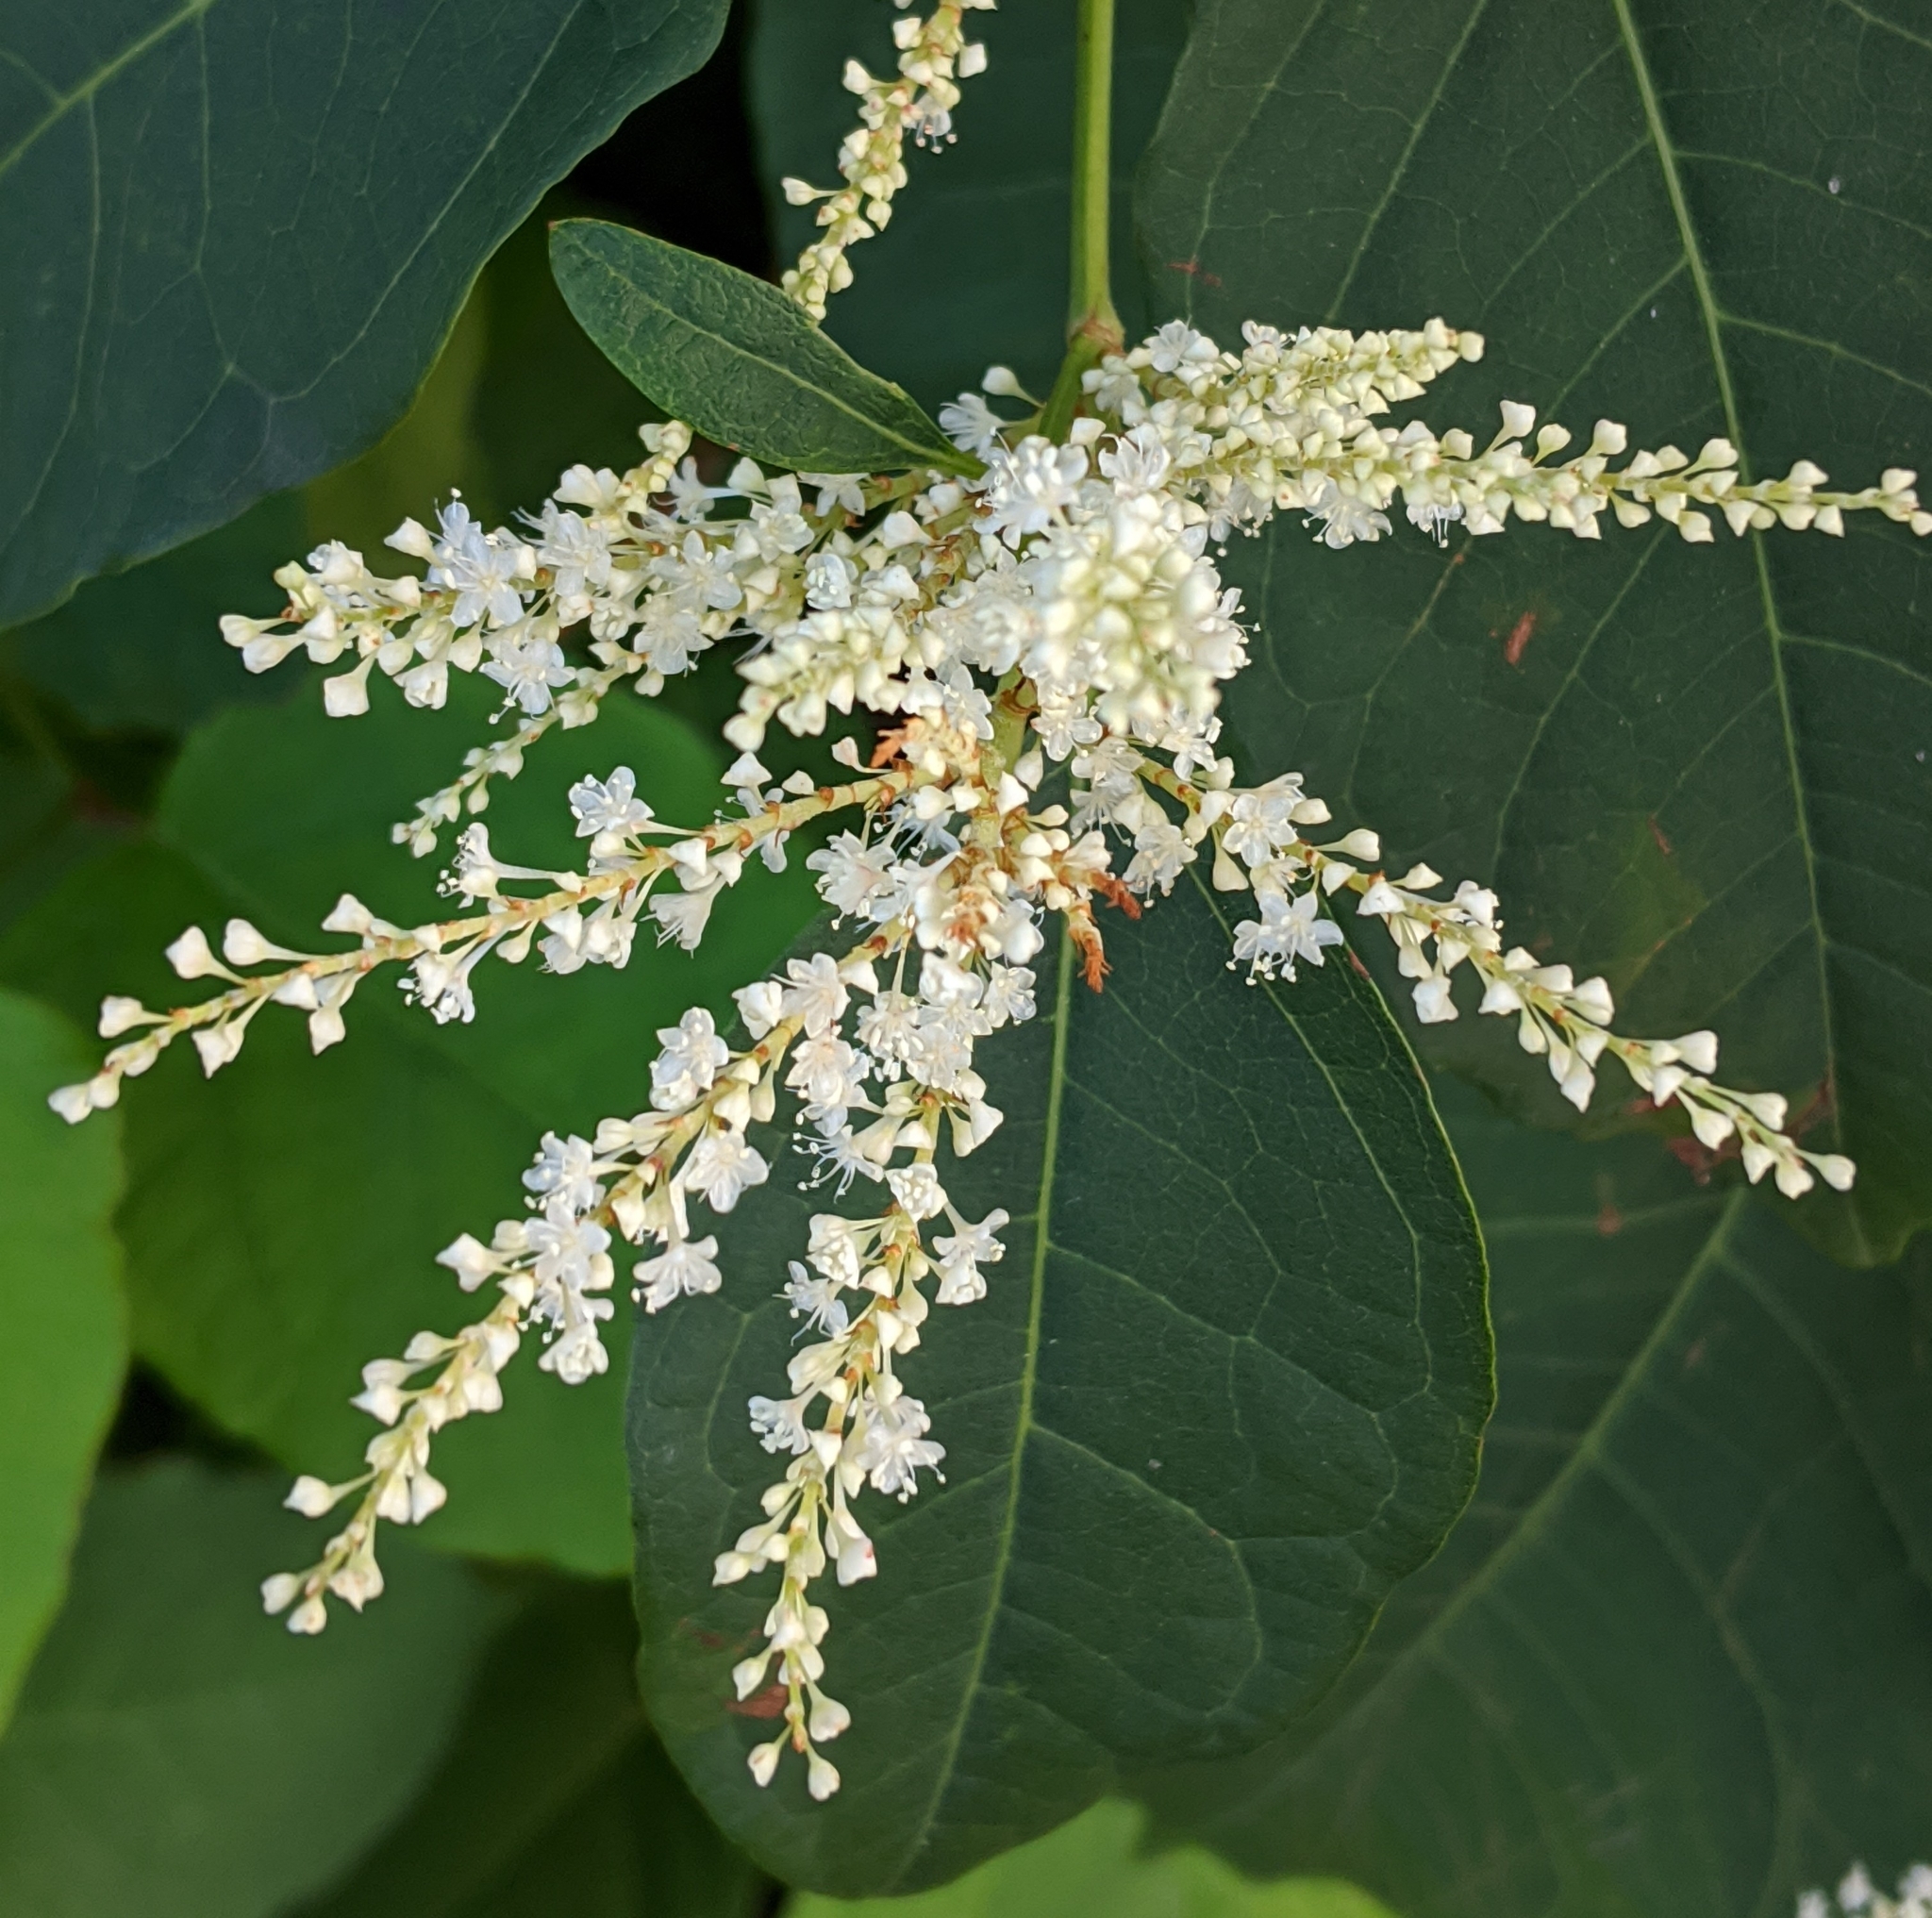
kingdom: Plantae
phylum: Tracheophyta
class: Magnoliopsida
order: Caryophyllales
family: Polygonaceae
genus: Reynoutria
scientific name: Reynoutria japonica
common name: Japanese knotweed
